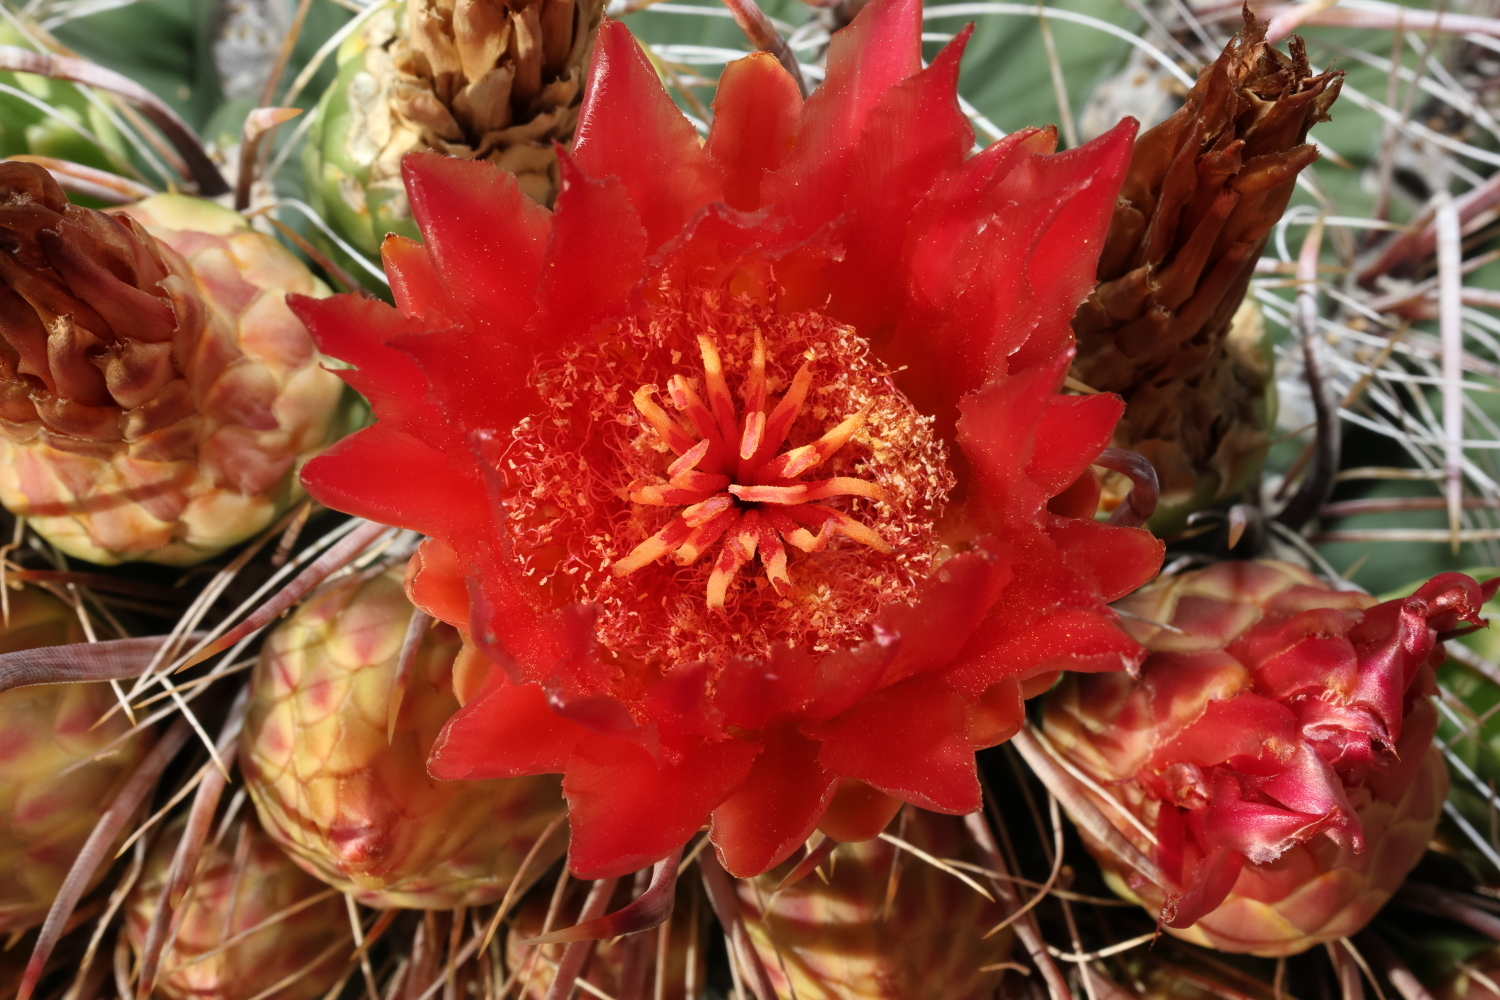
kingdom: Plantae
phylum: Tracheophyta
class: Magnoliopsida
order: Caryophyllales
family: Cactaceae
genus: Ferocactus
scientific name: Ferocactus wislizeni
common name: Candy barrel cactus
